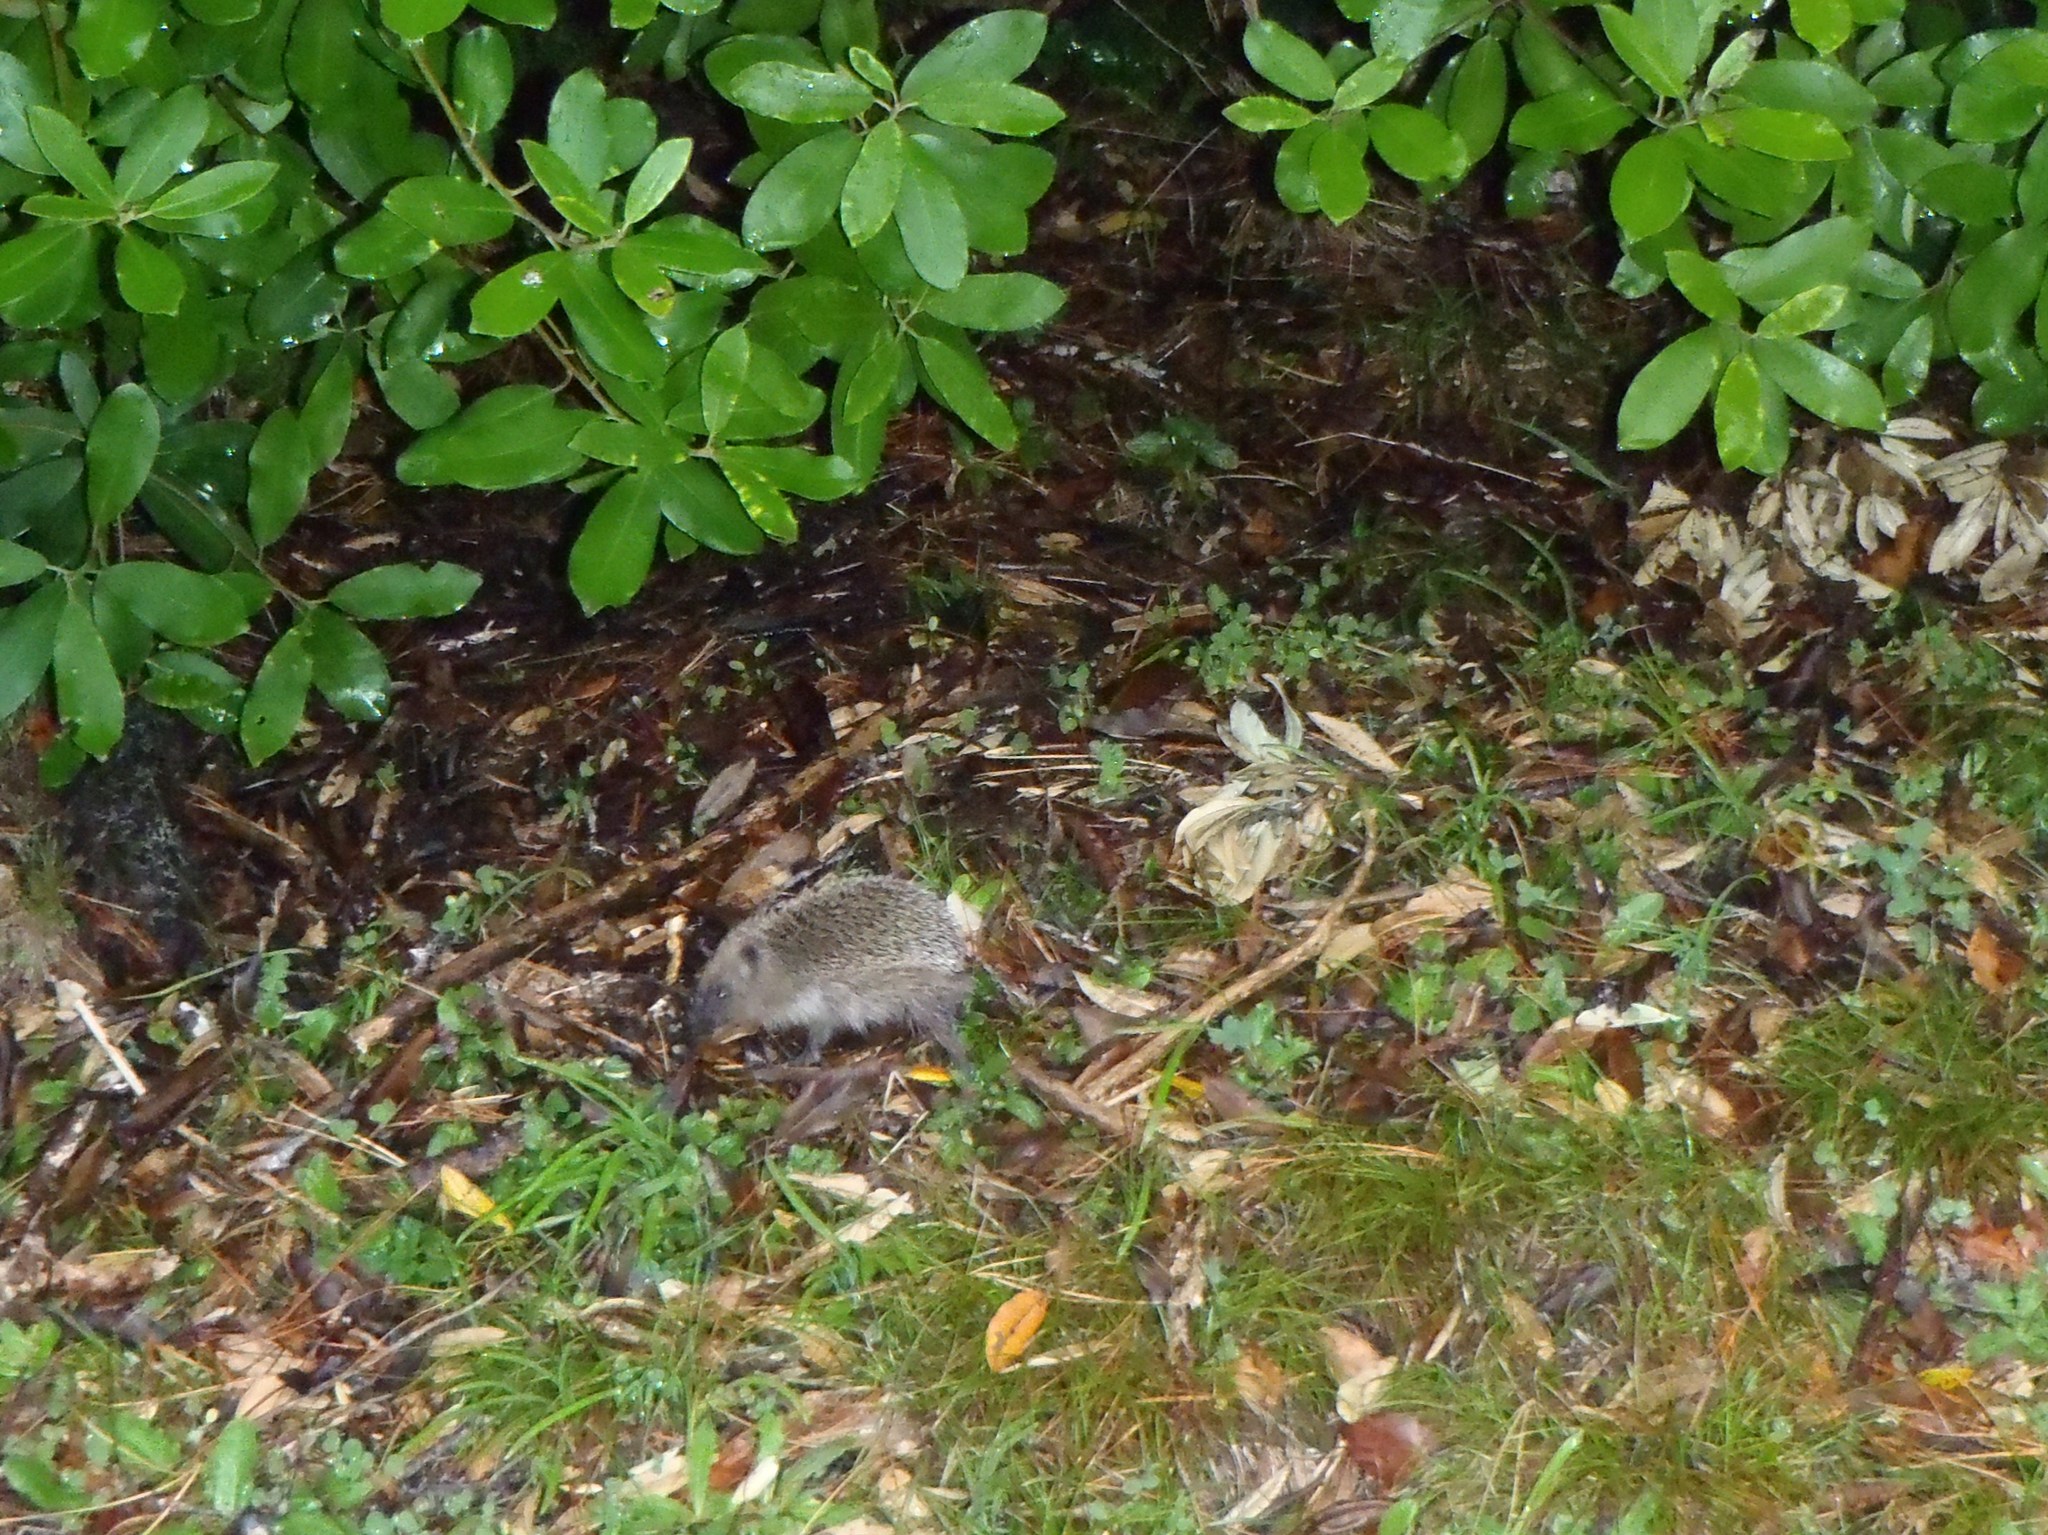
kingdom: Animalia
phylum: Chordata
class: Mammalia
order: Erinaceomorpha
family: Erinaceidae
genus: Erinaceus
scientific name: Erinaceus europaeus
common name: West european hedgehog
